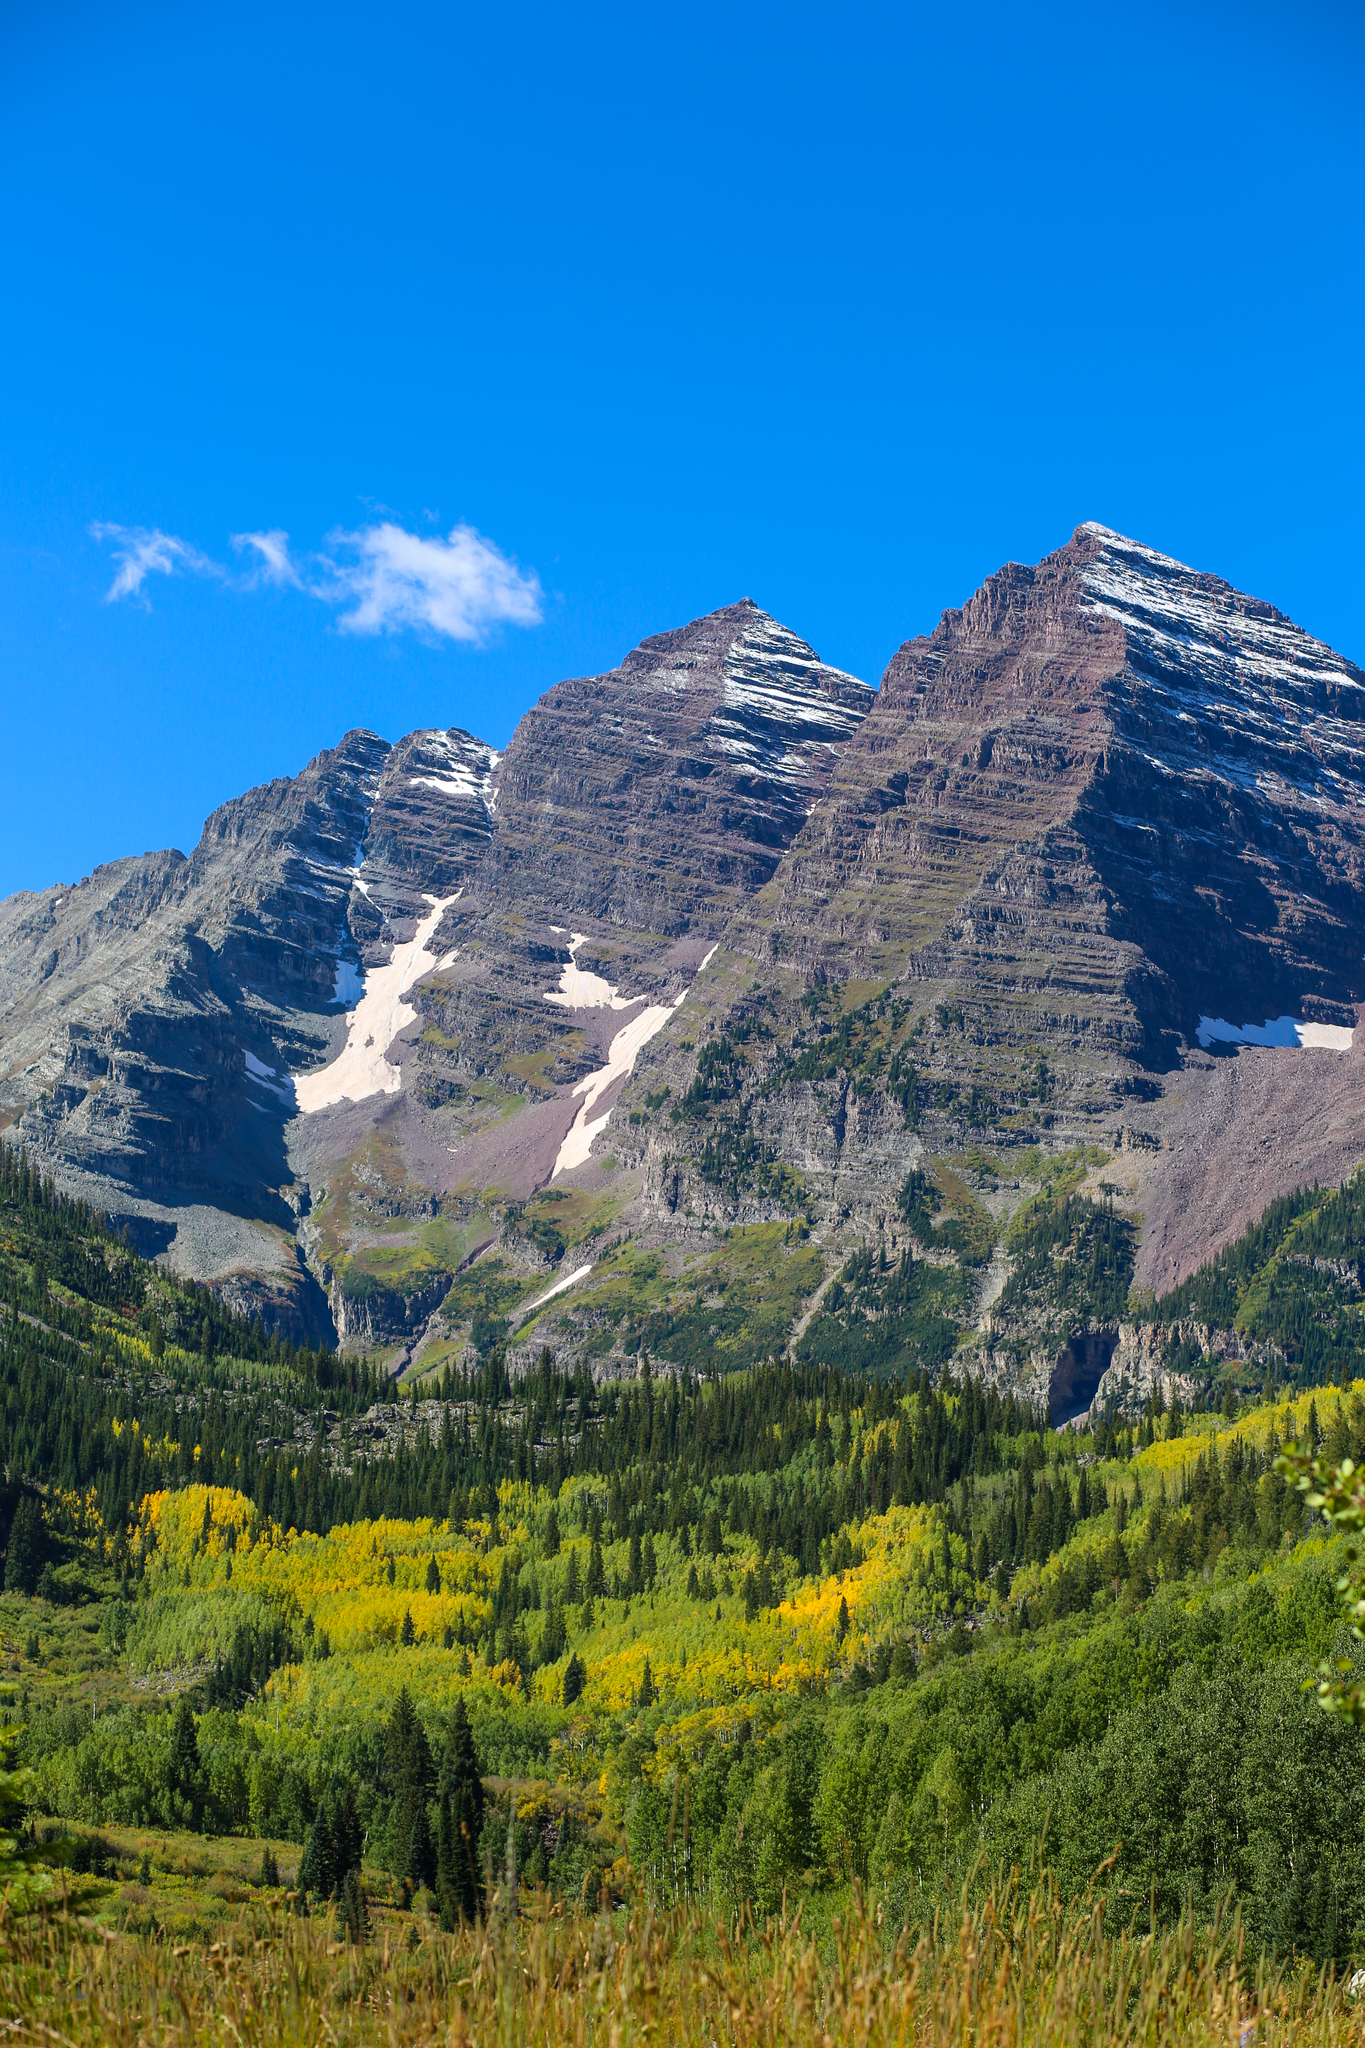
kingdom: Plantae
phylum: Tracheophyta
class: Magnoliopsida
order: Malpighiales
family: Salicaceae
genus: Populus
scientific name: Populus tremuloides
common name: Quaking aspen
